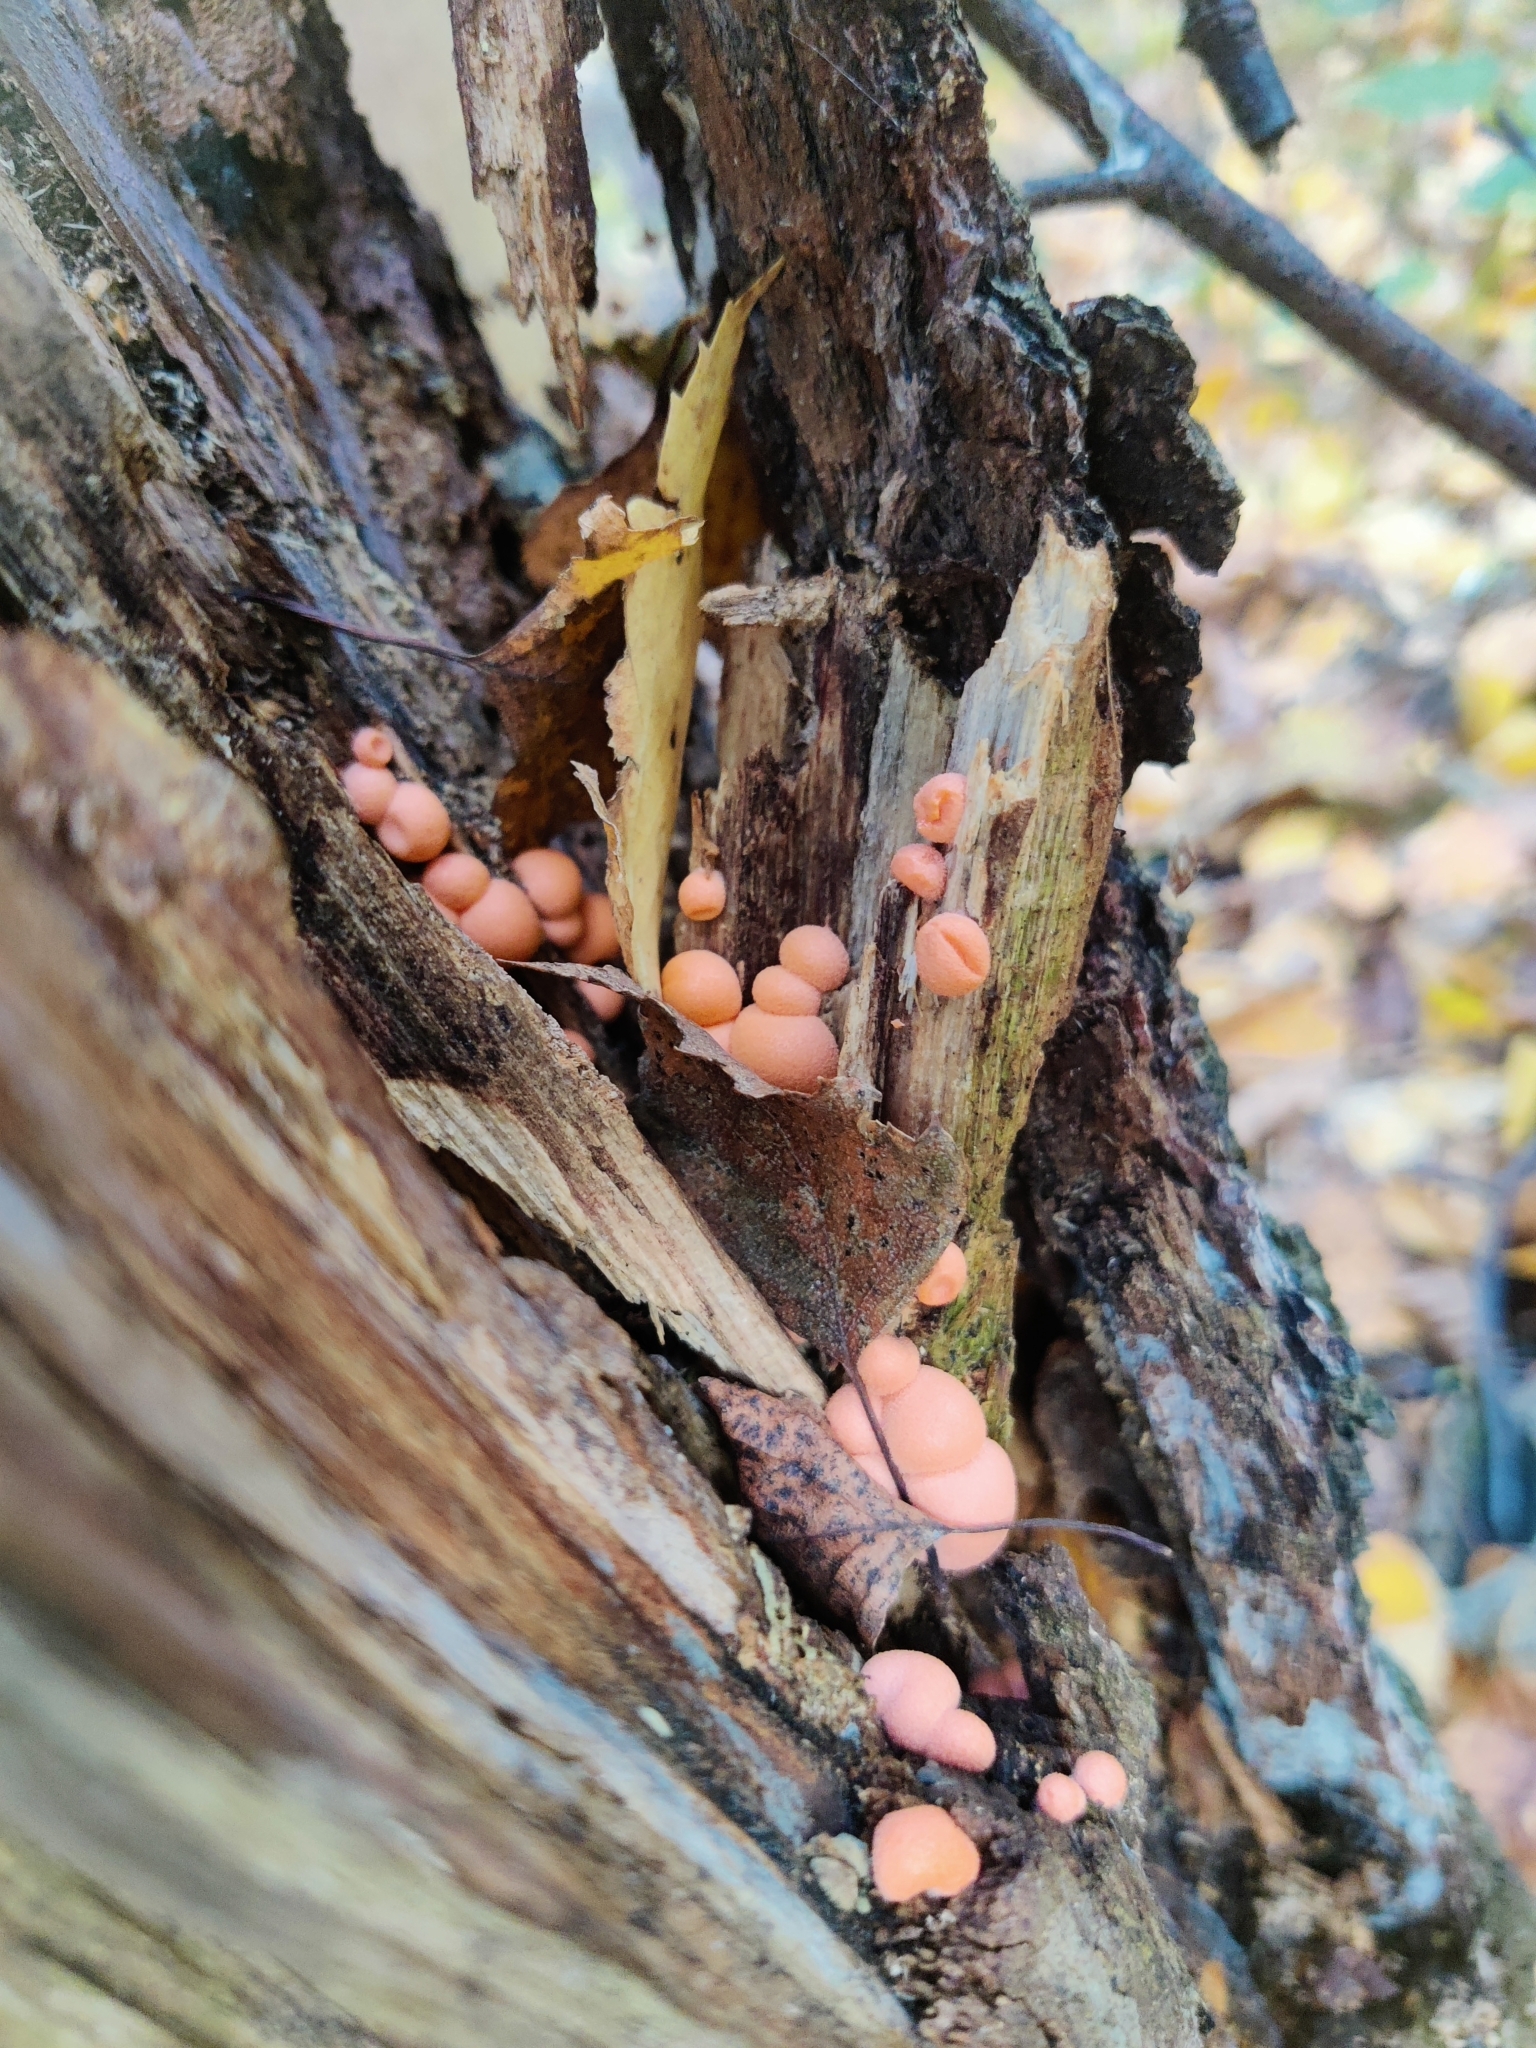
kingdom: Protozoa
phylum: Mycetozoa
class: Myxomycetes
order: Cribrariales
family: Tubiferaceae
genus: Lycogala
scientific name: Lycogala epidendrum
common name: Wolf's milk
